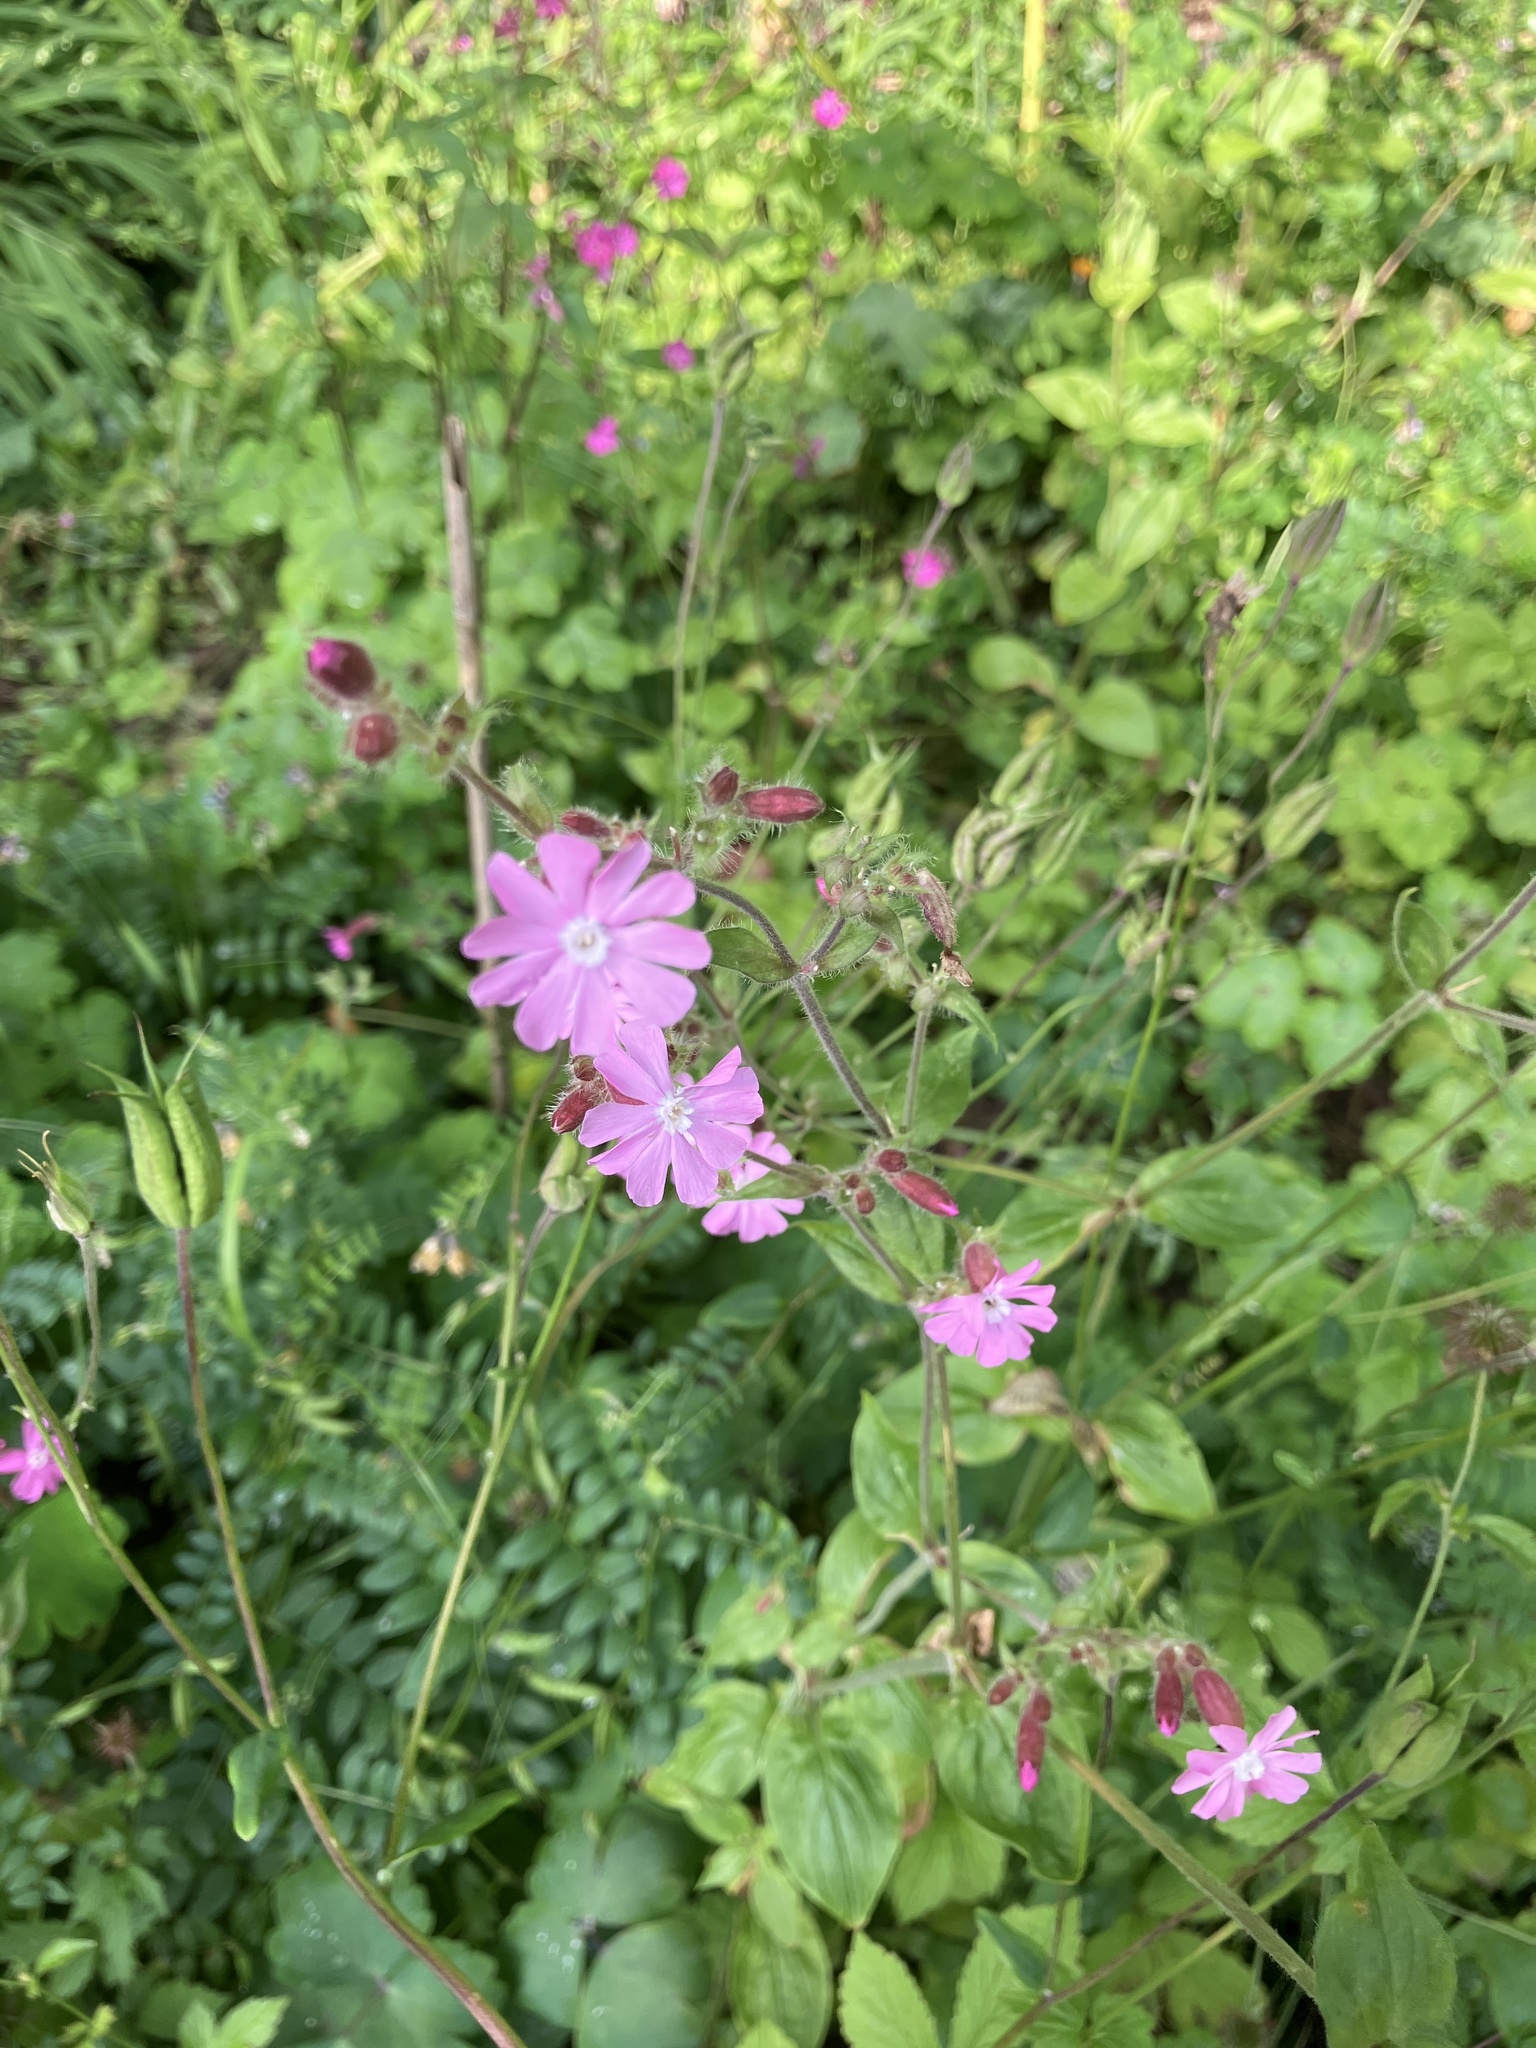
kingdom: Plantae
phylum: Tracheophyta
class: Magnoliopsida
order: Caryophyllales
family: Caryophyllaceae
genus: Silene
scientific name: Silene dioica
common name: Red campion
